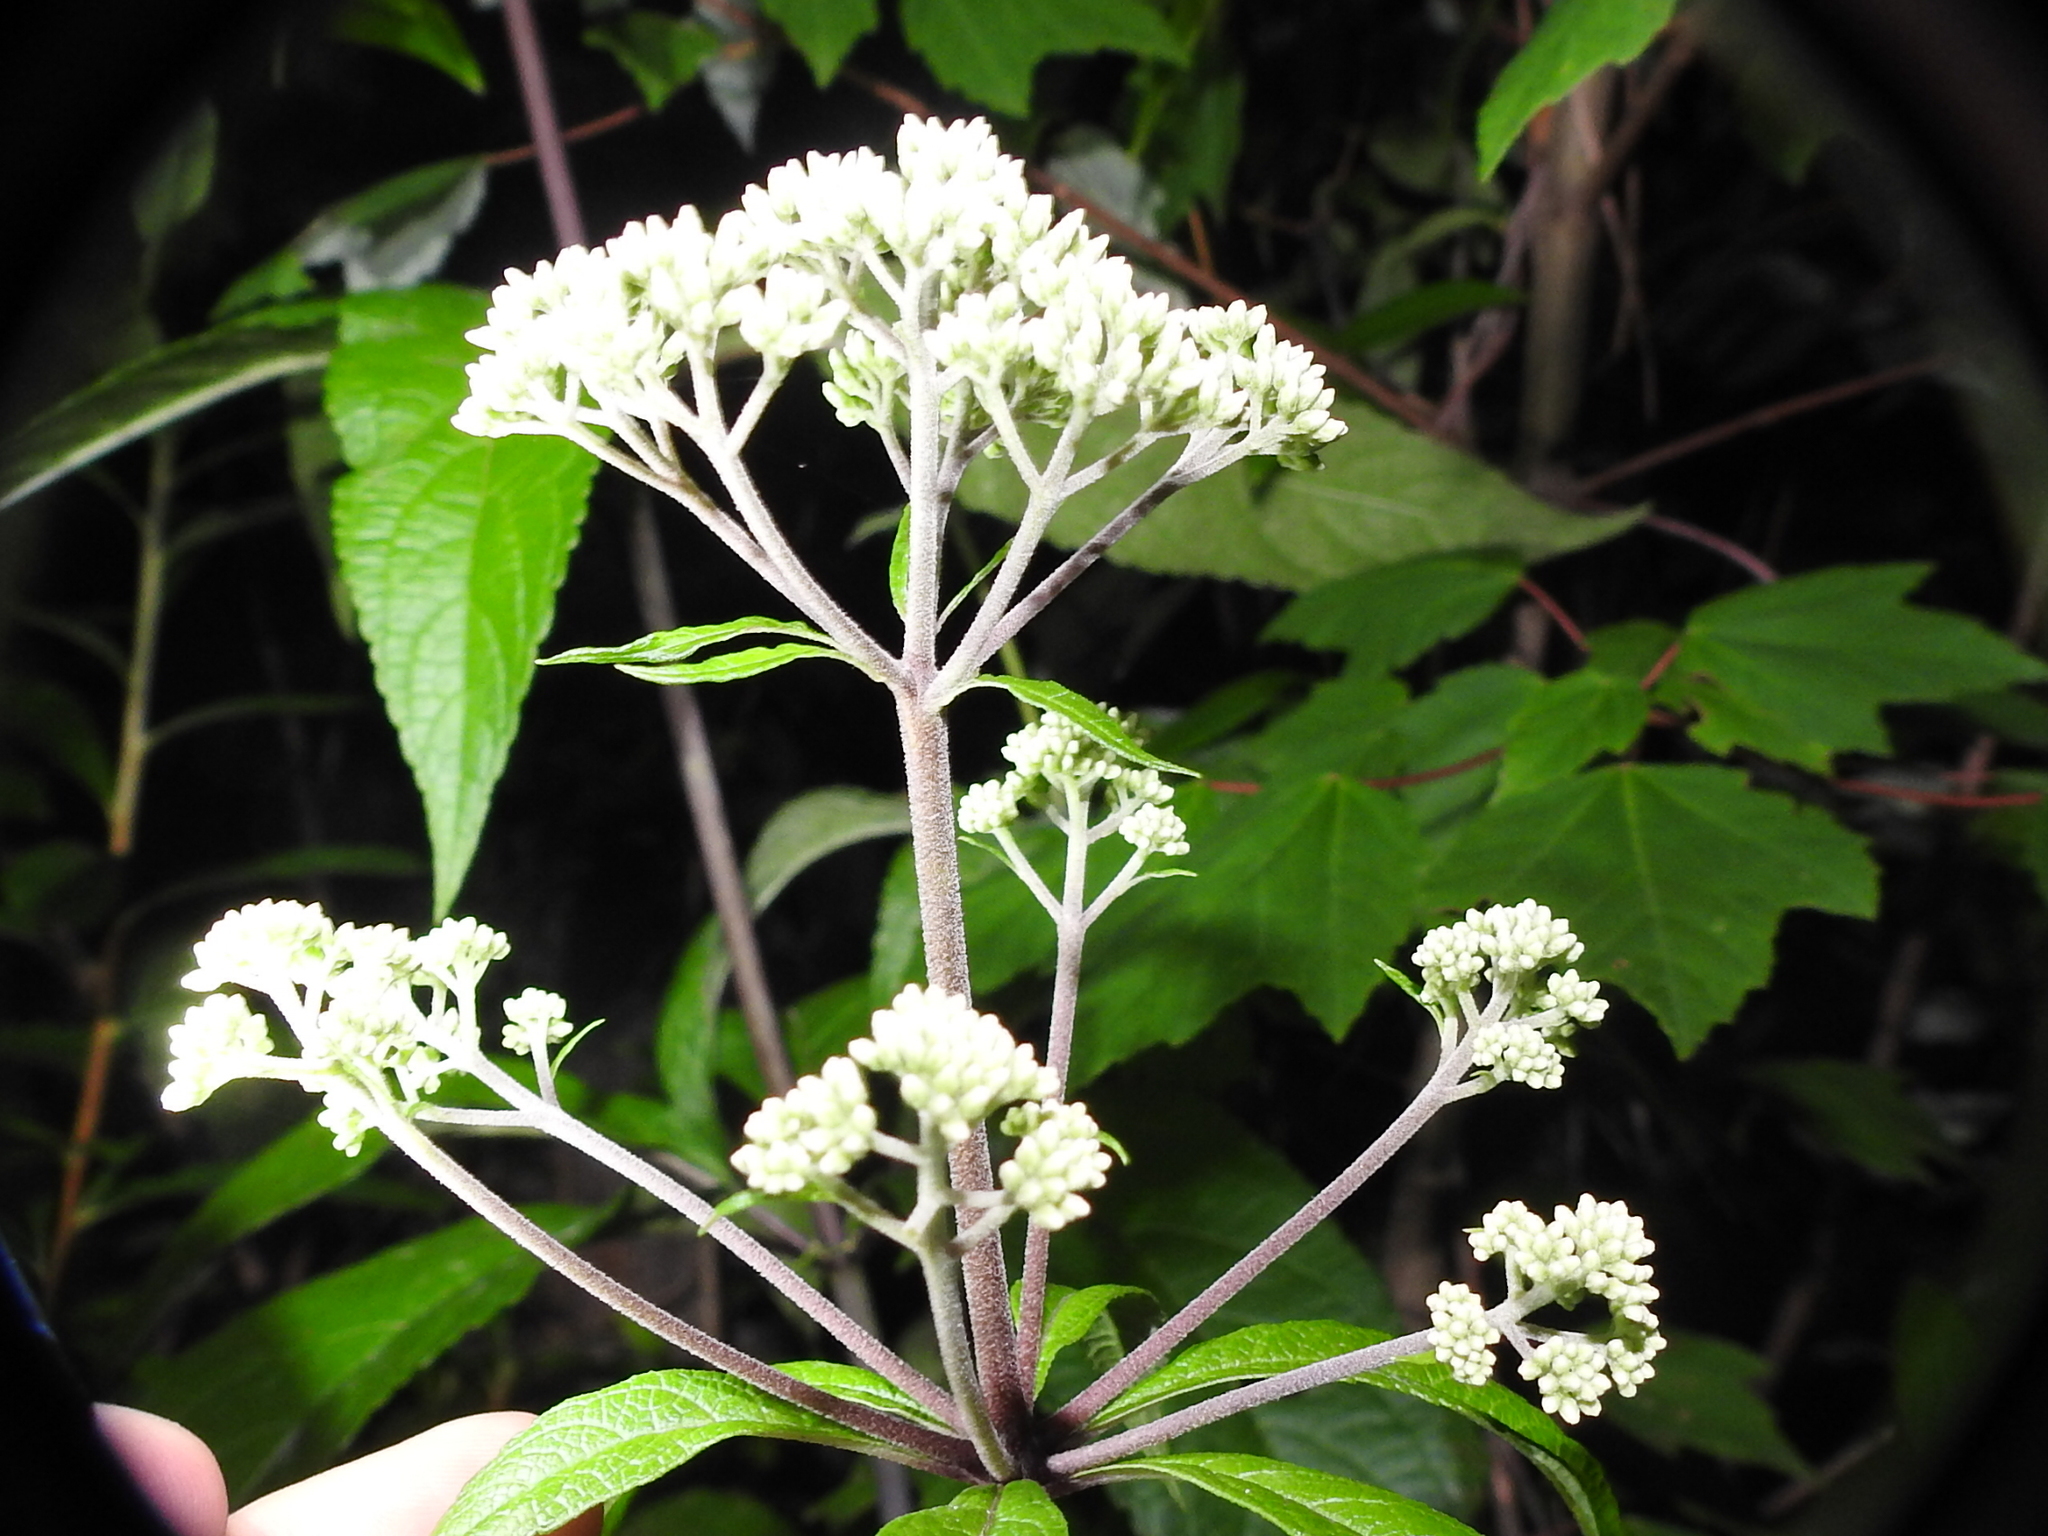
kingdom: Plantae
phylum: Tracheophyta
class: Magnoliopsida
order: Asterales
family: Asteraceae
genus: Eutrochium
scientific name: Eutrochium fistulosum
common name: Trumpetweed
